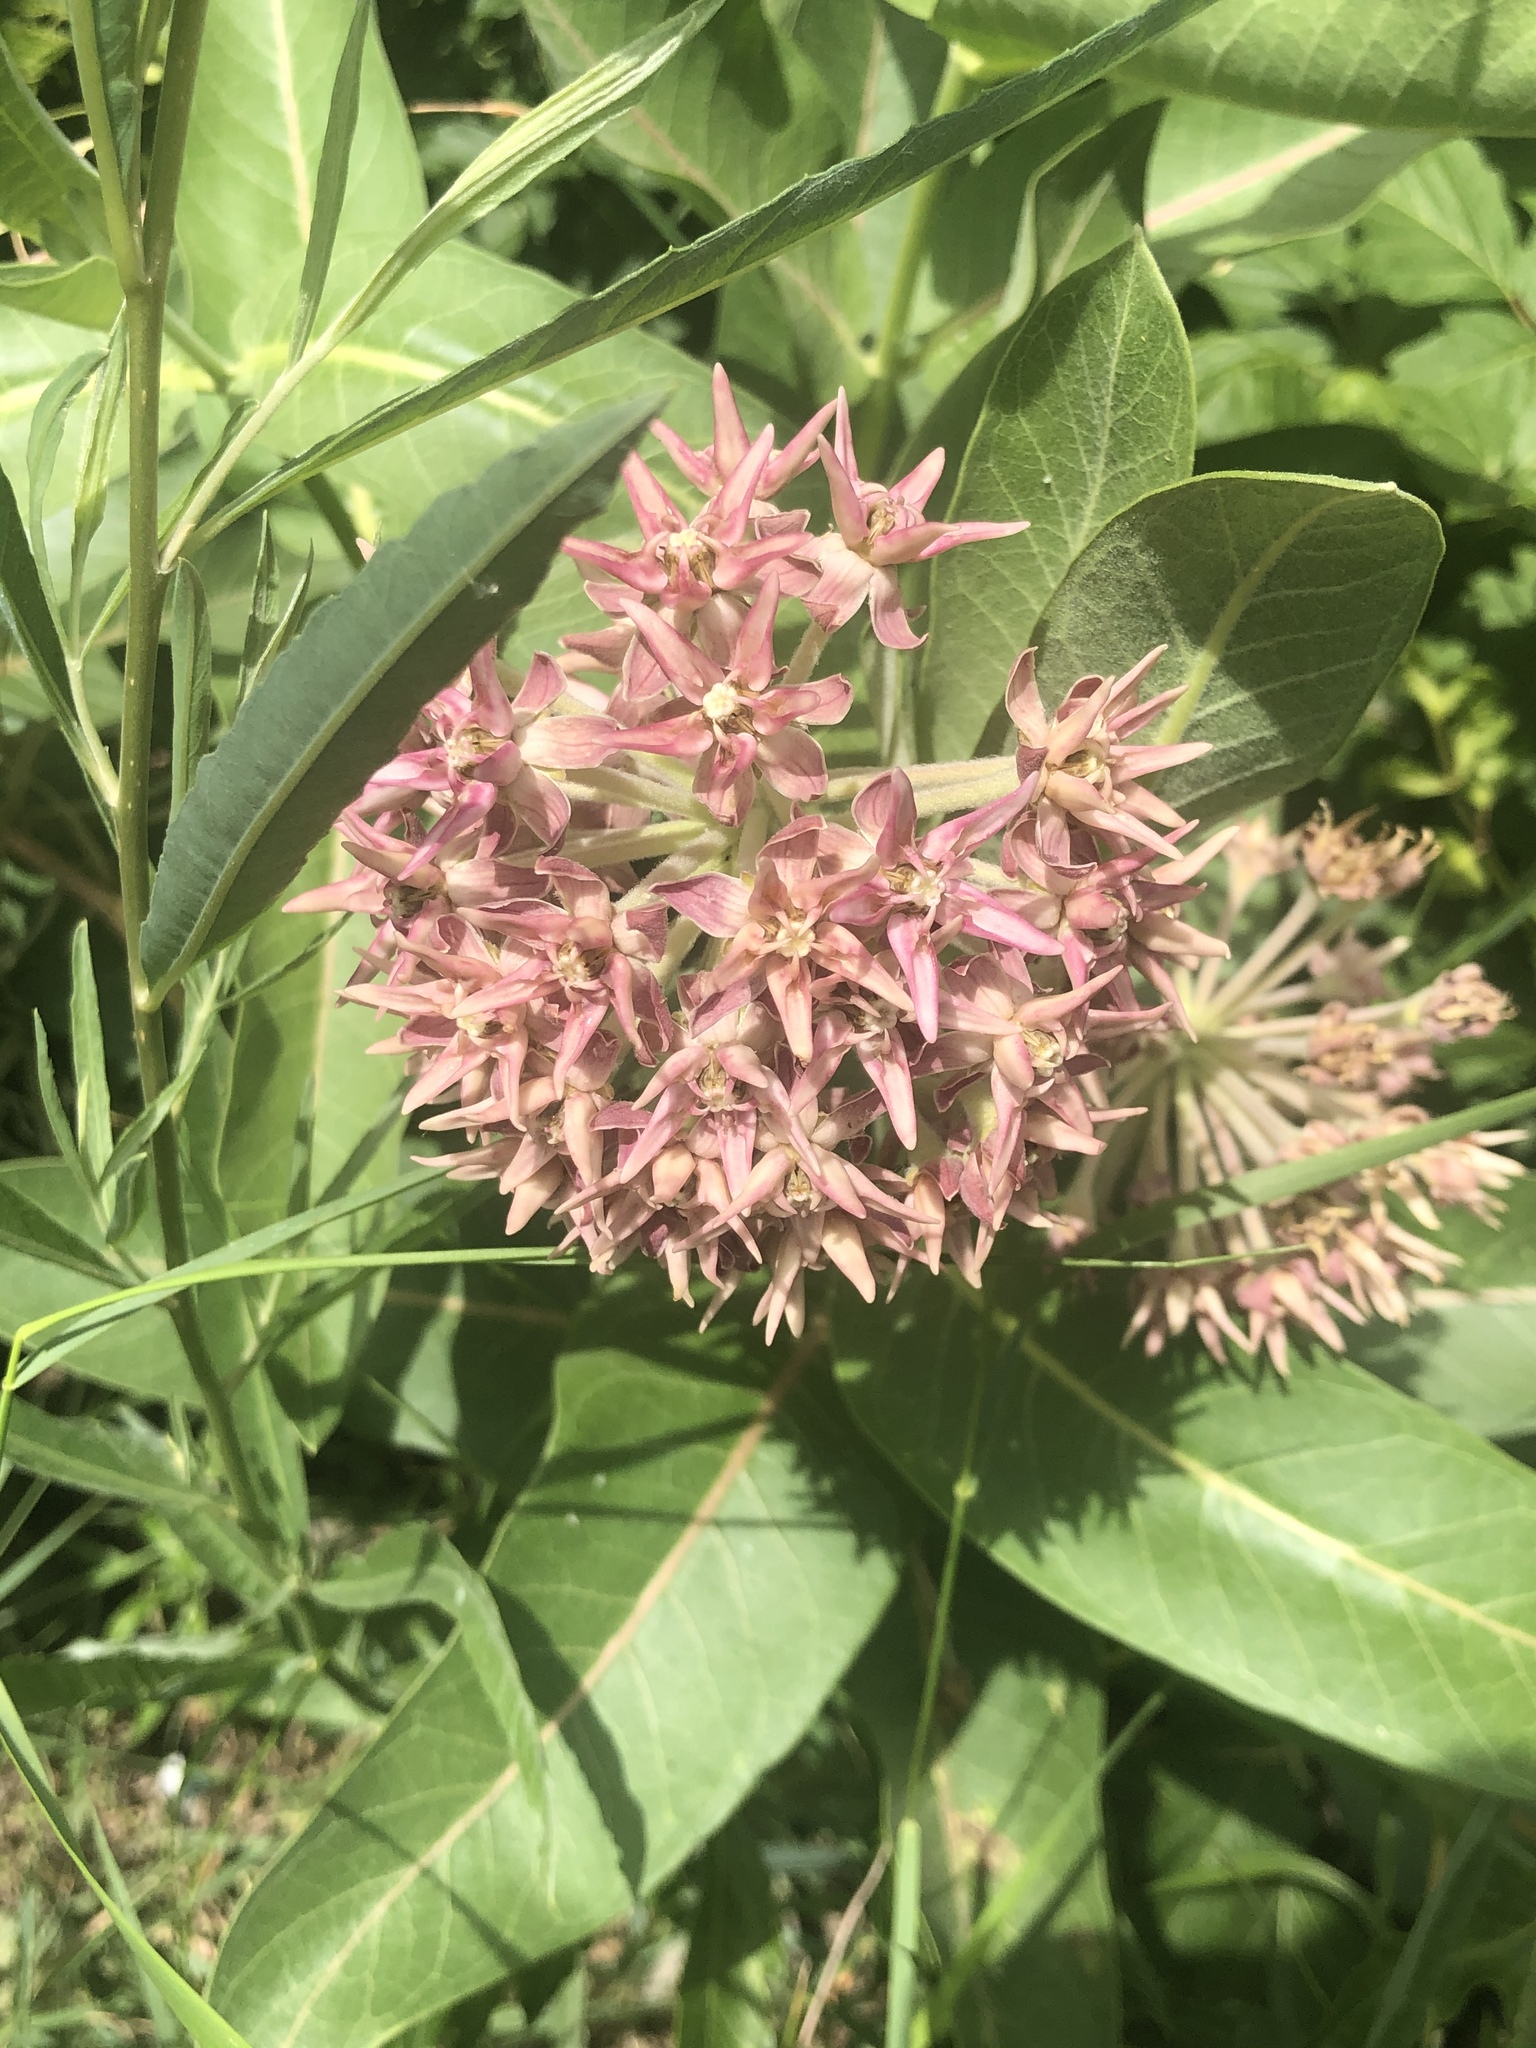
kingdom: Plantae
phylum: Tracheophyta
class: Magnoliopsida
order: Gentianales
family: Apocynaceae
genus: Asclepias
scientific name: Asclepias speciosa
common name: Showy milkweed
